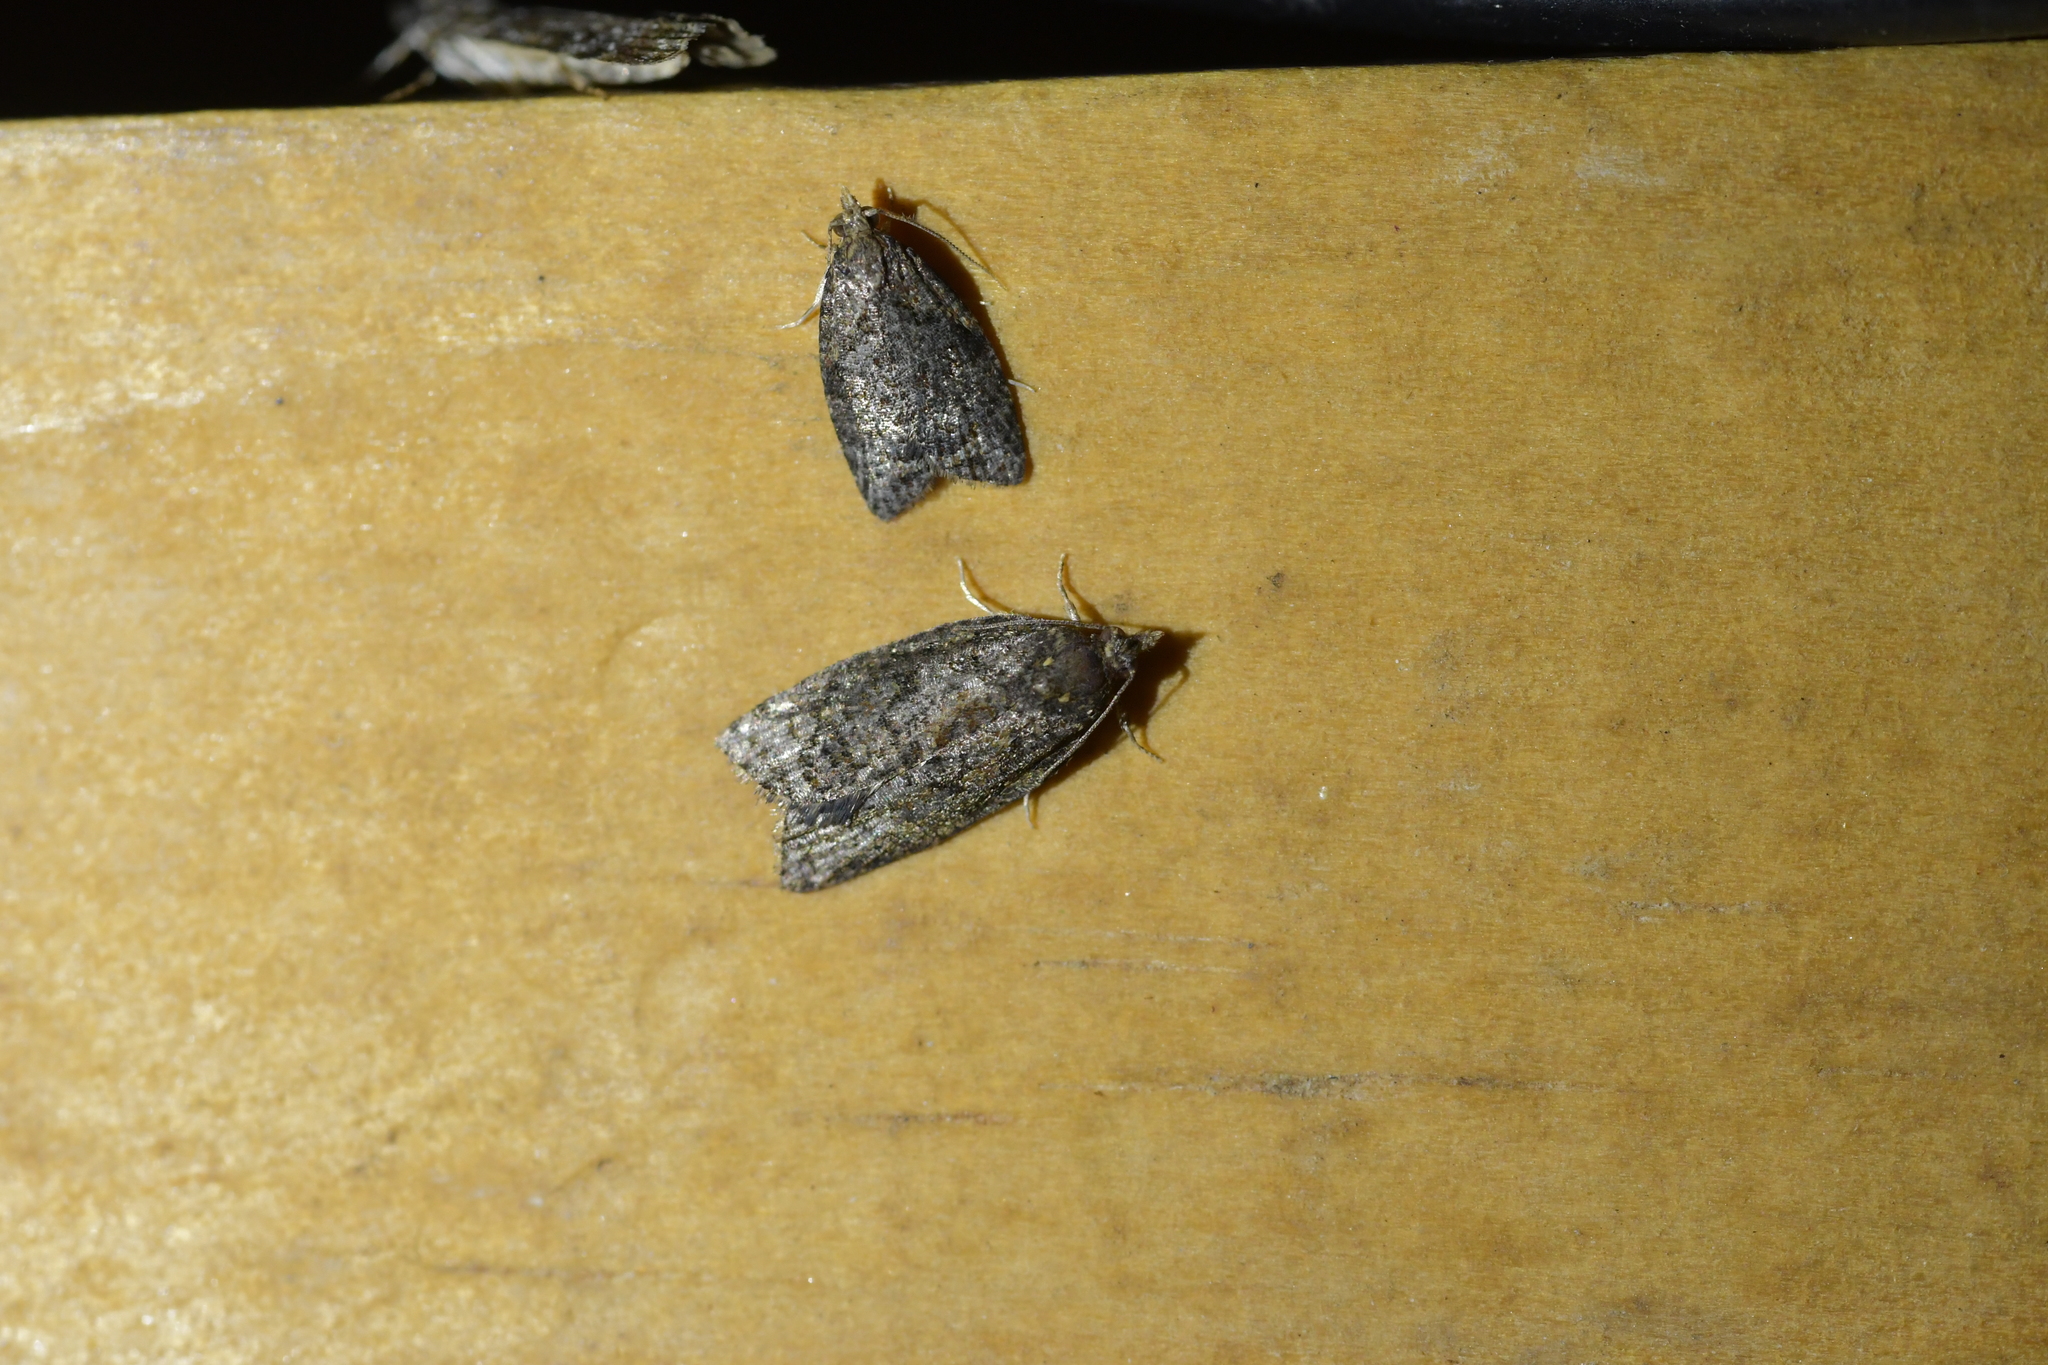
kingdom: Animalia
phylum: Arthropoda
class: Insecta
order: Lepidoptera
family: Tortricidae
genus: Capua
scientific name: Capua intractana
